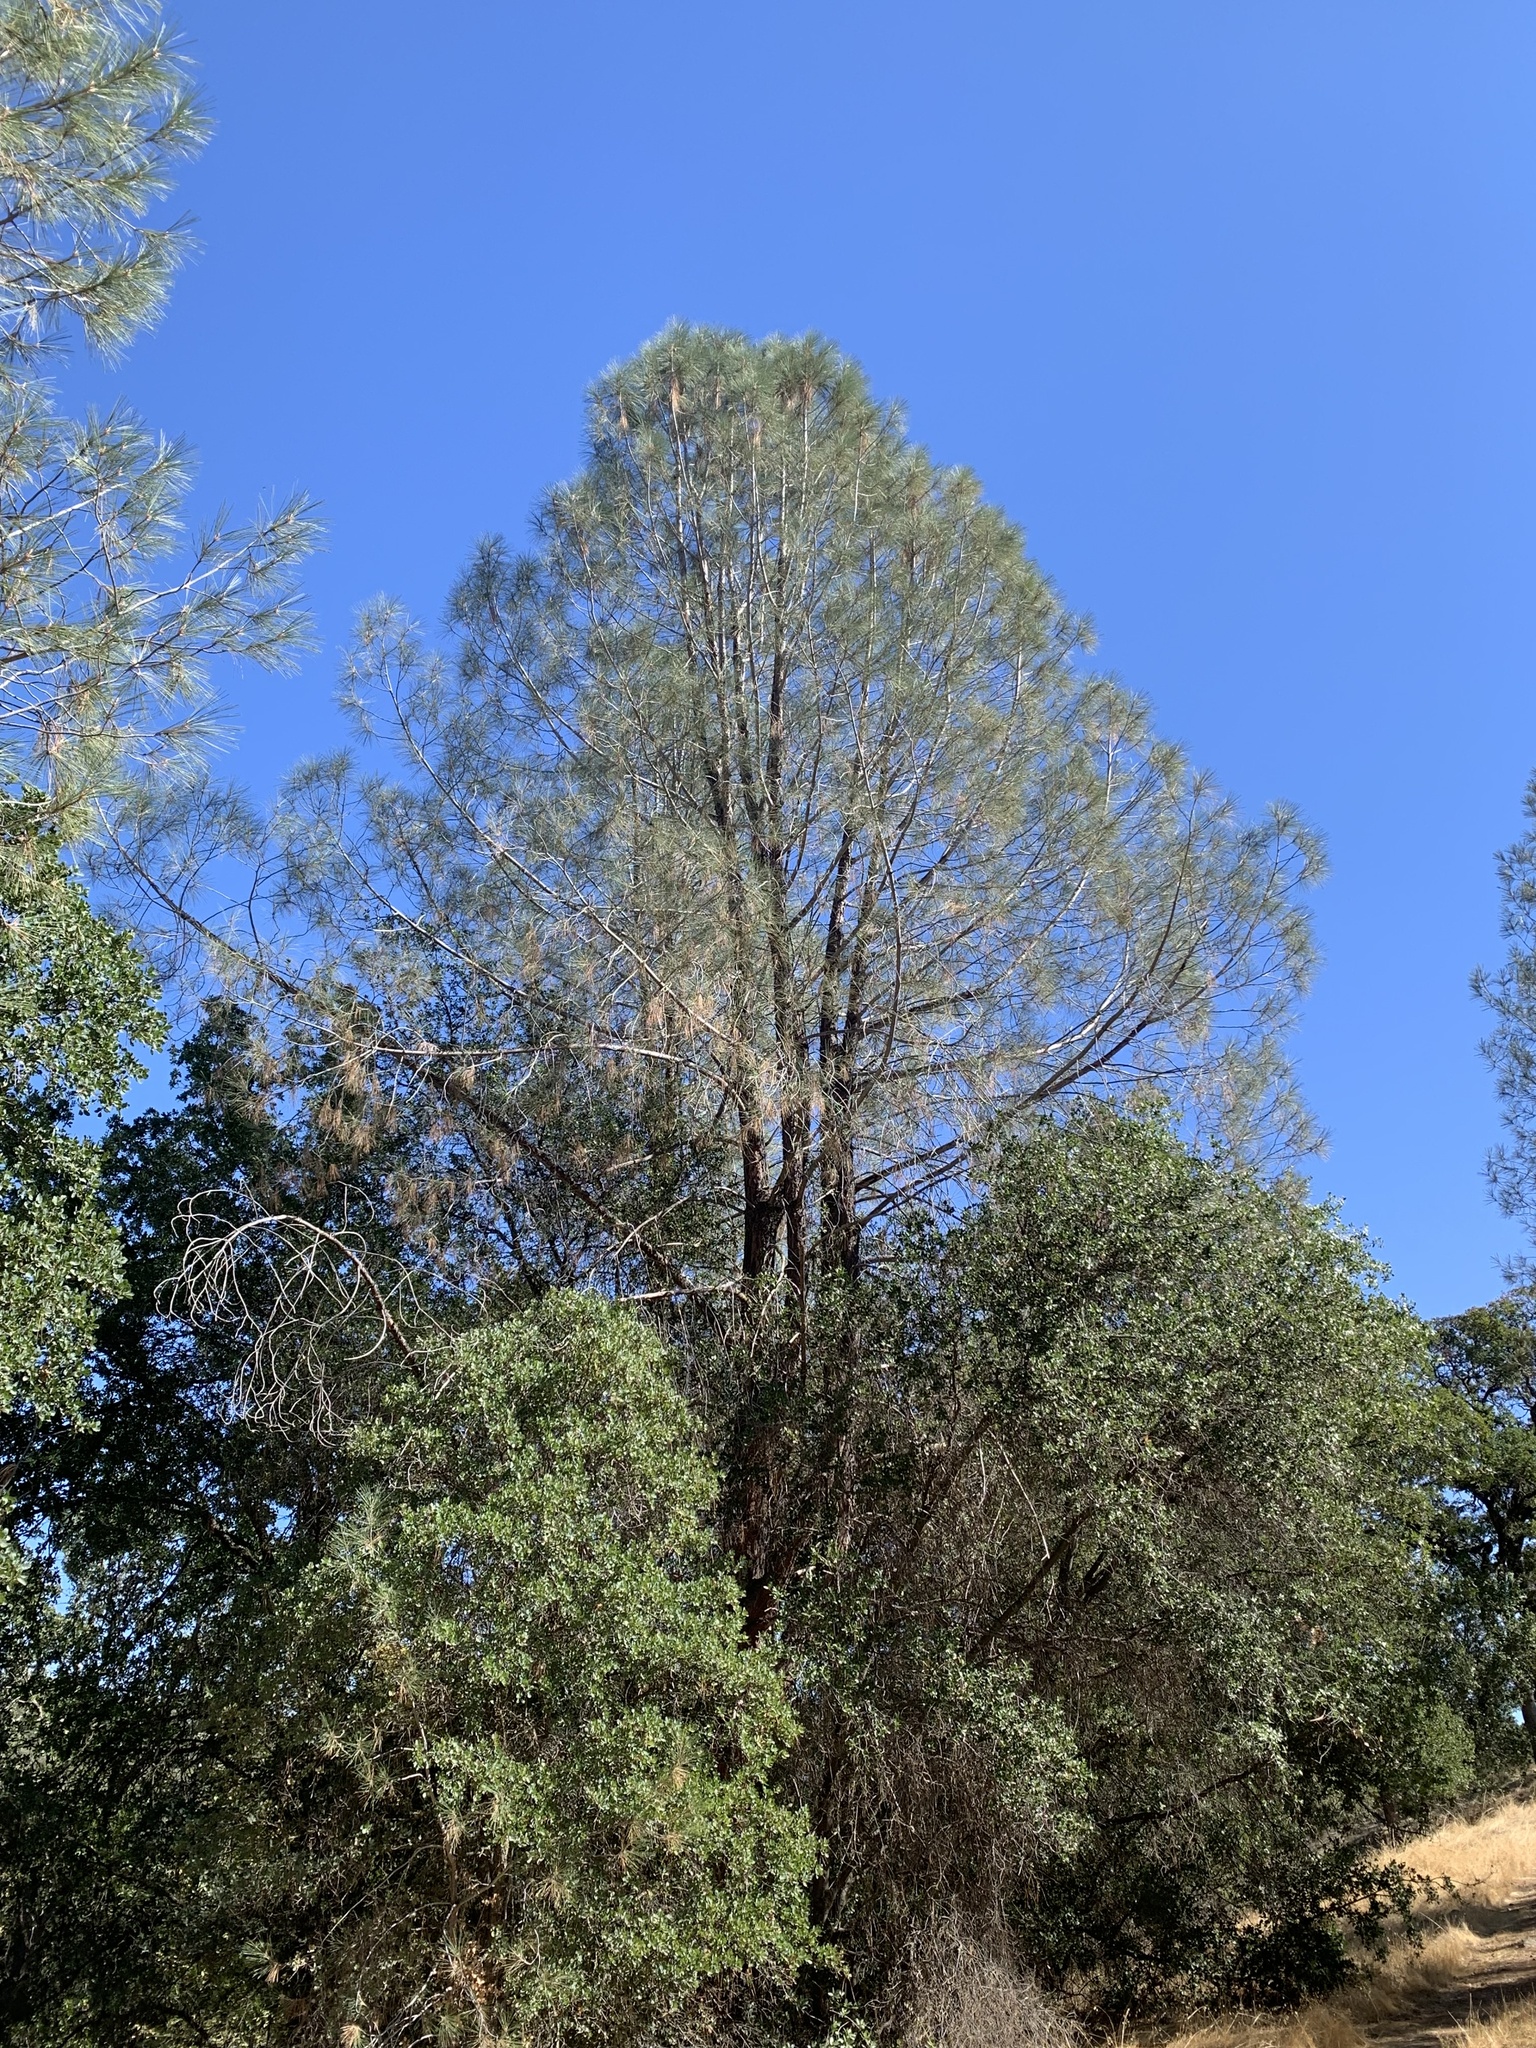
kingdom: Plantae
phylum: Tracheophyta
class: Pinopsida
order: Pinales
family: Pinaceae
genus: Pinus
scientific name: Pinus sabiniana
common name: Bull pine
